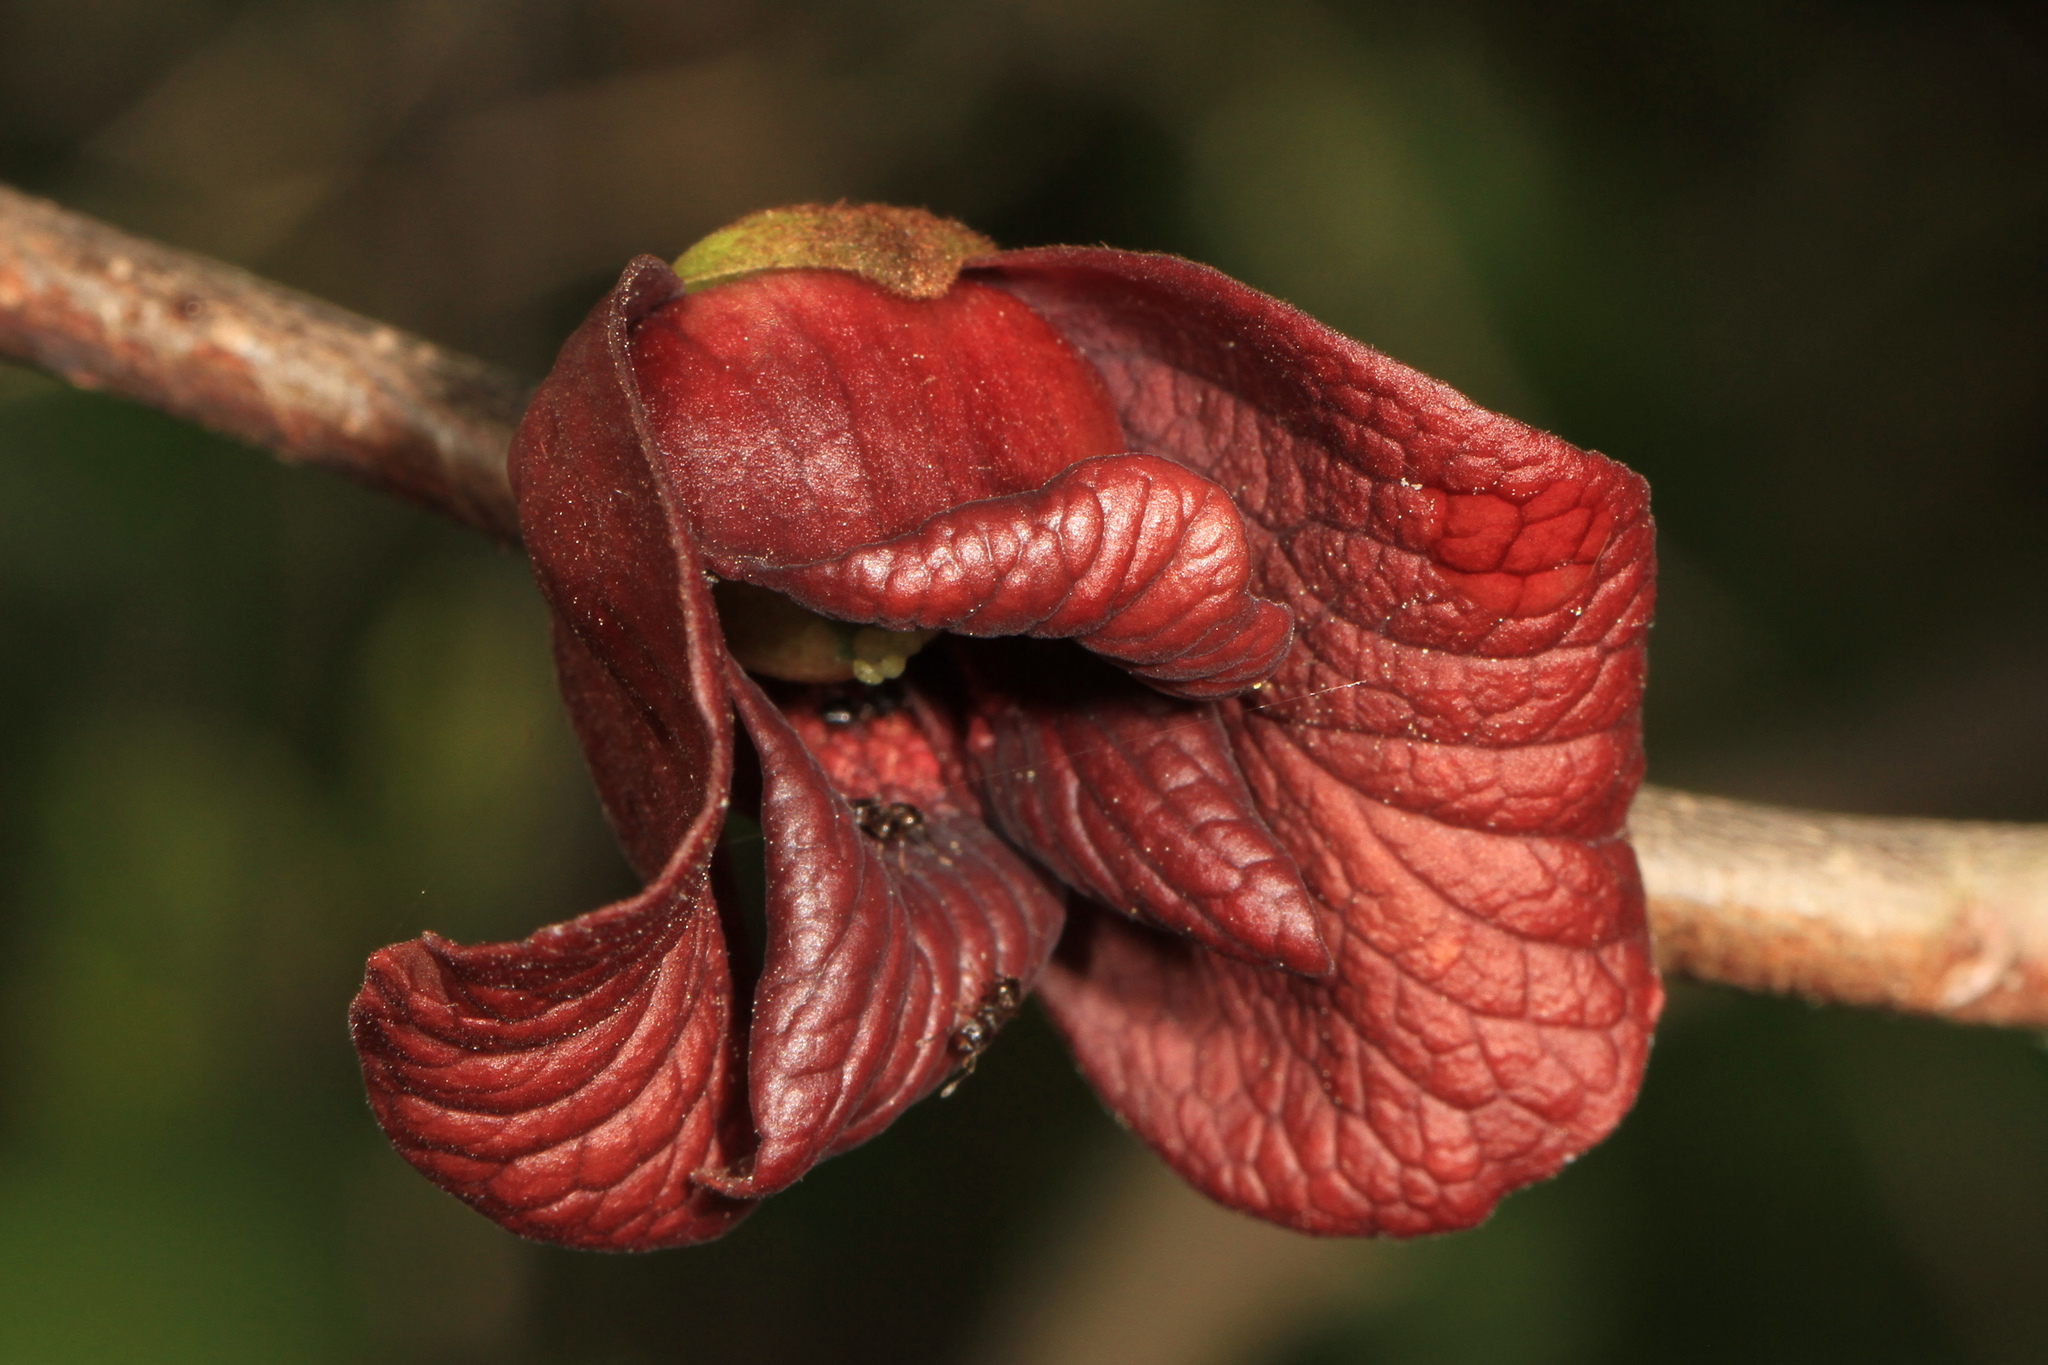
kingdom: Plantae
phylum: Tracheophyta
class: Magnoliopsida
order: Magnoliales
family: Annonaceae
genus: Asimina
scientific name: Asimina triloba
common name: Dog-banana
